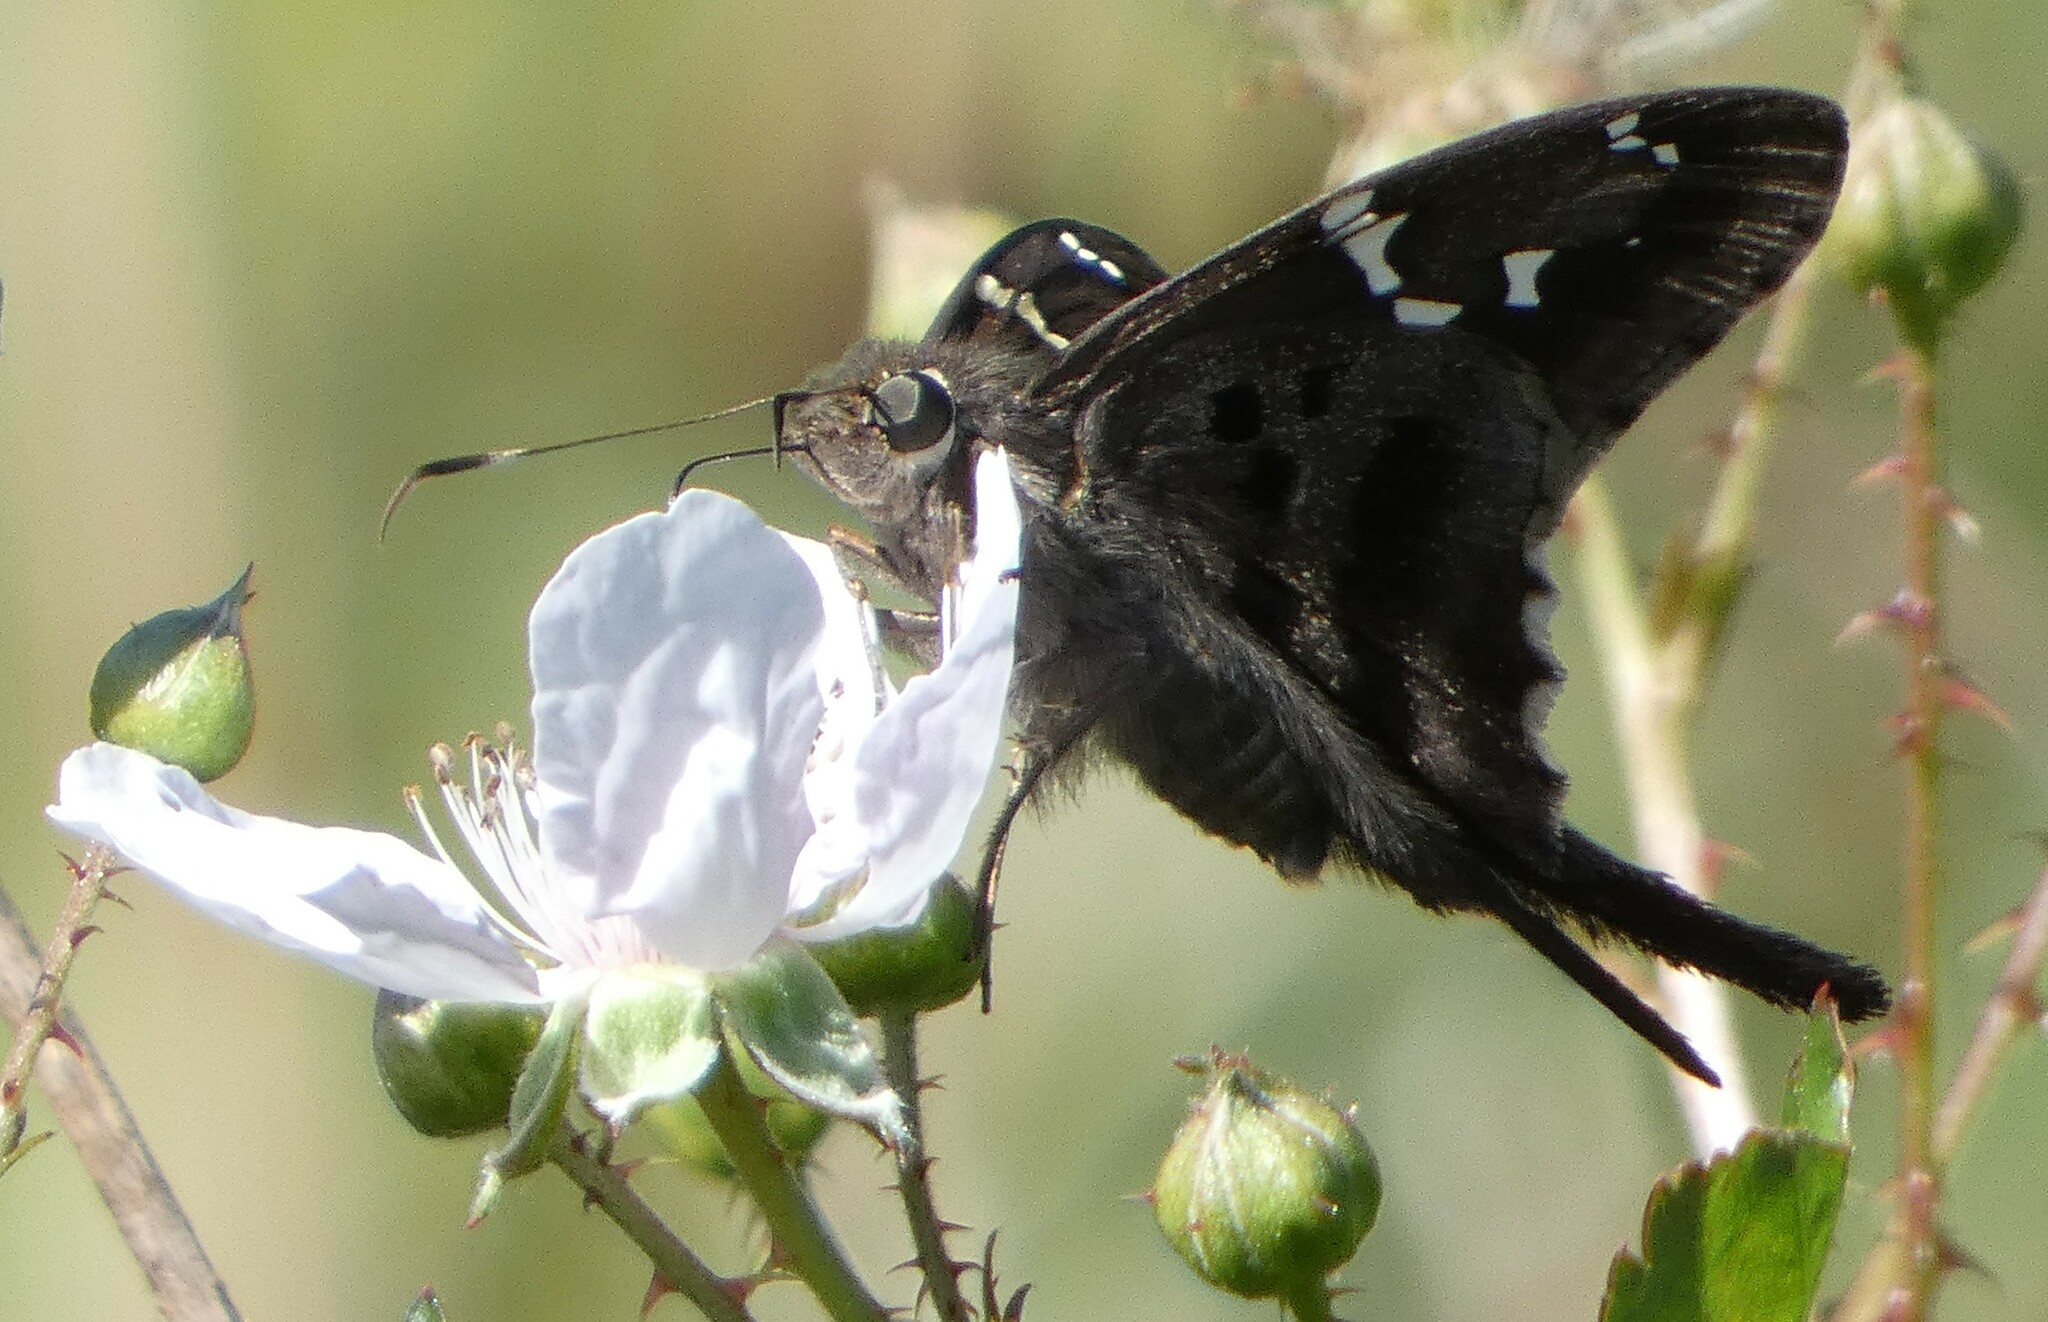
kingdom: Animalia
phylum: Arthropoda
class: Insecta
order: Lepidoptera
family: Hesperiidae
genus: Urbanus
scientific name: Urbanus proteus
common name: Long-tailed skipper
